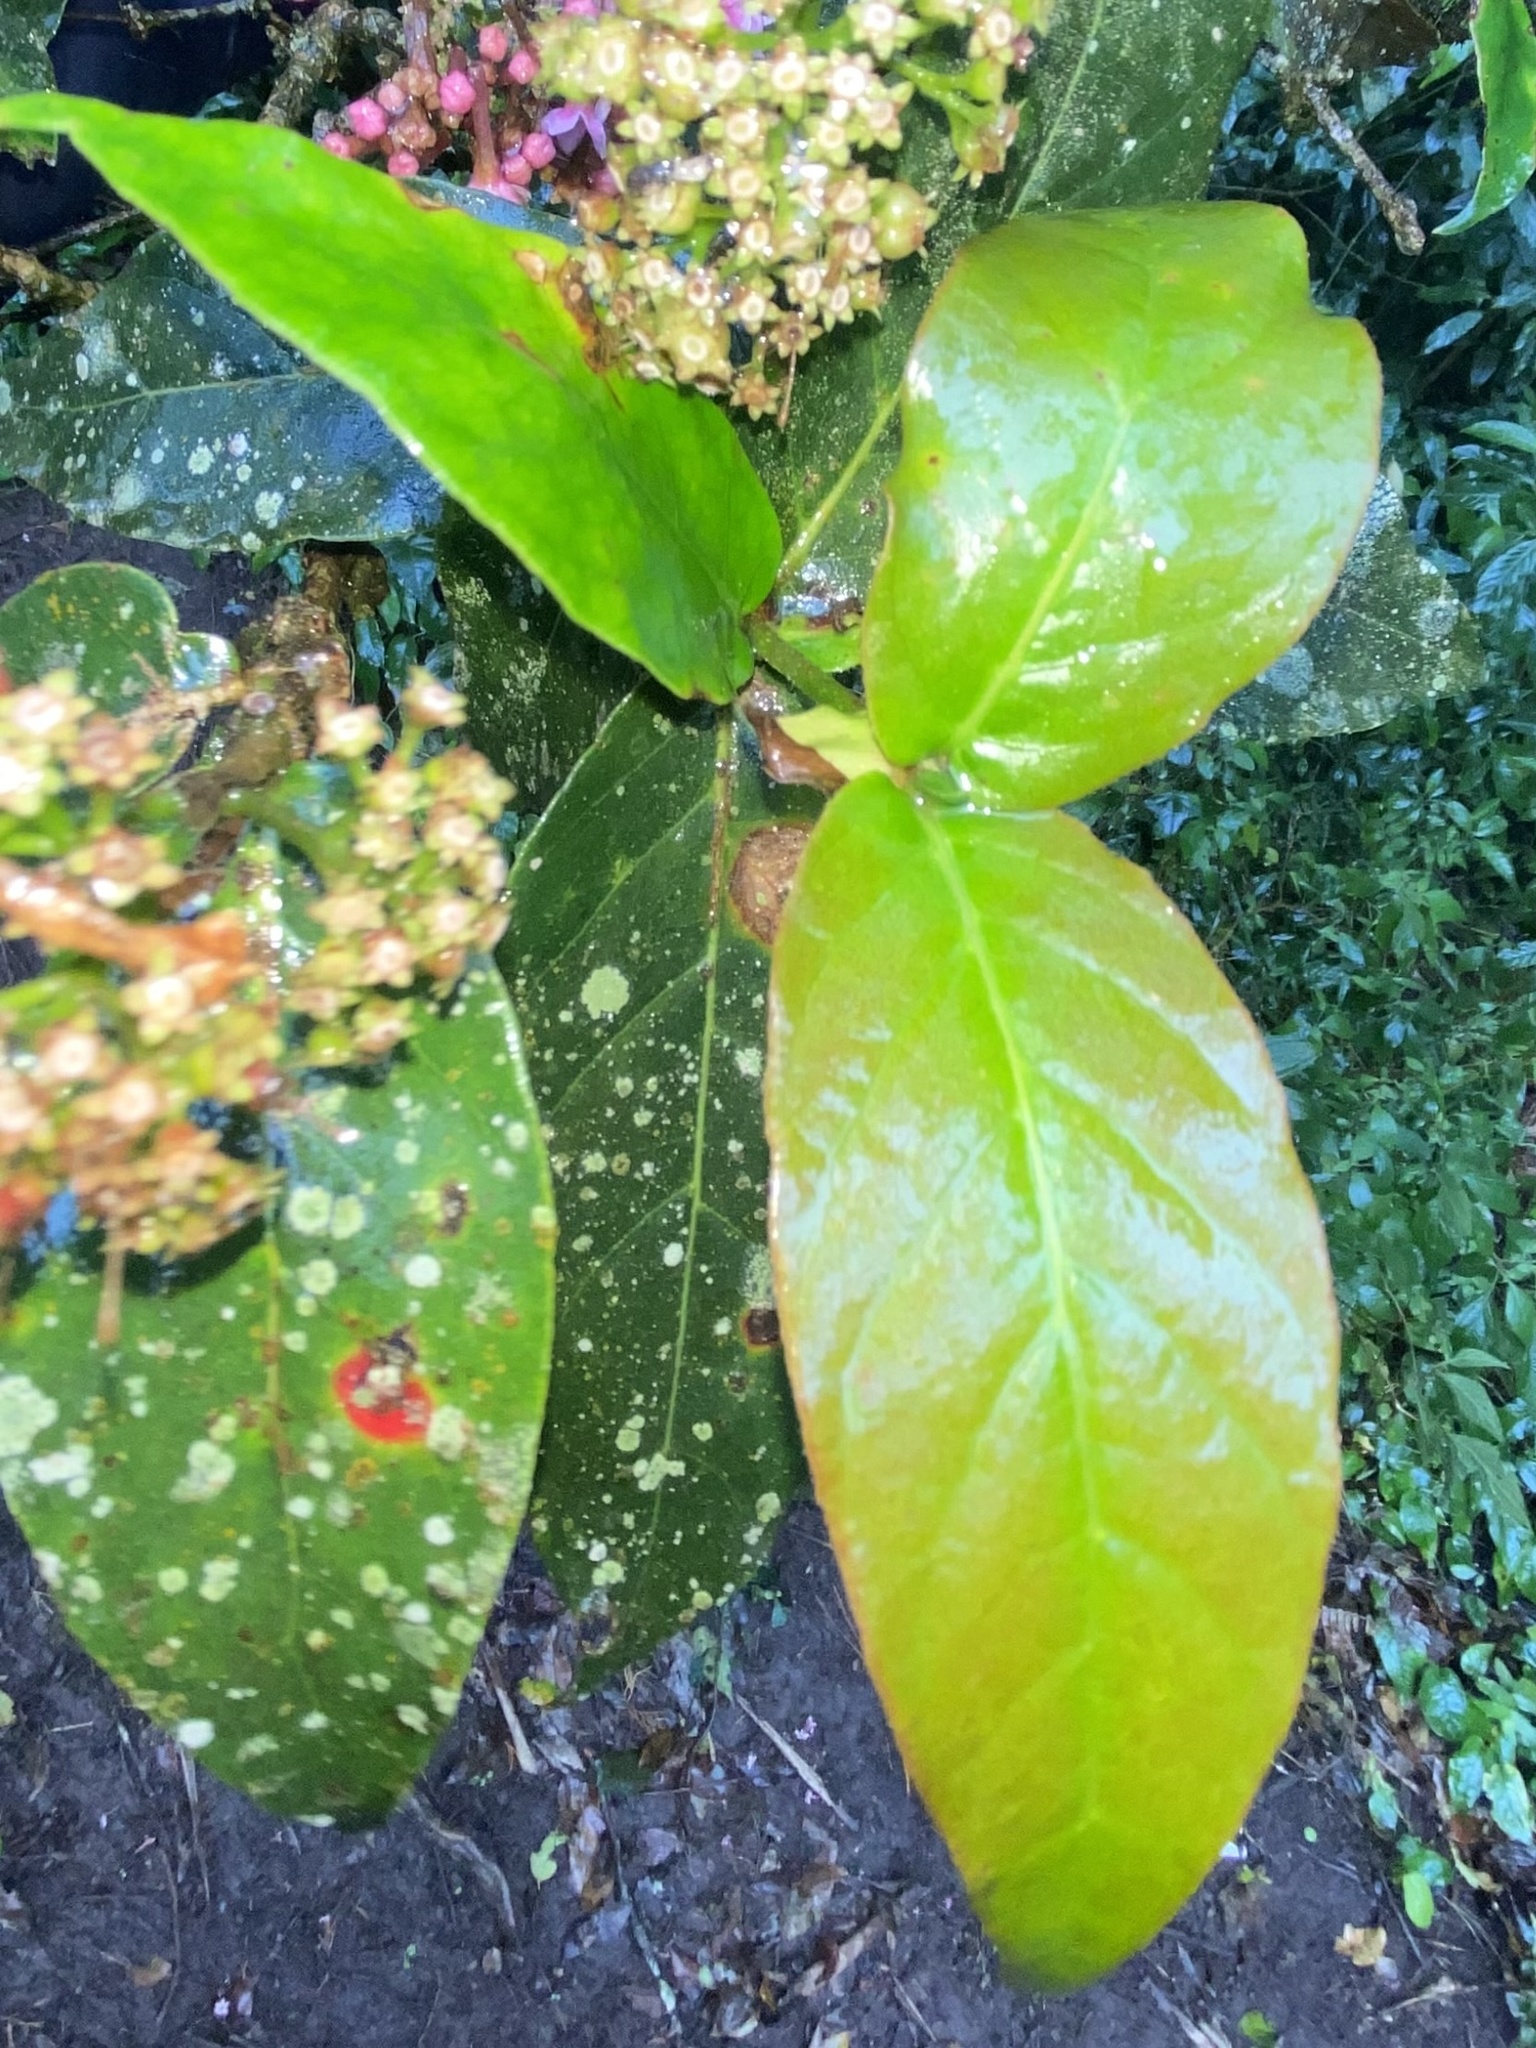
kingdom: Plantae
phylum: Tracheophyta
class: Magnoliopsida
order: Gentianales
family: Rubiaceae
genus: Rogiera
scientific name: Rogiera cordata
